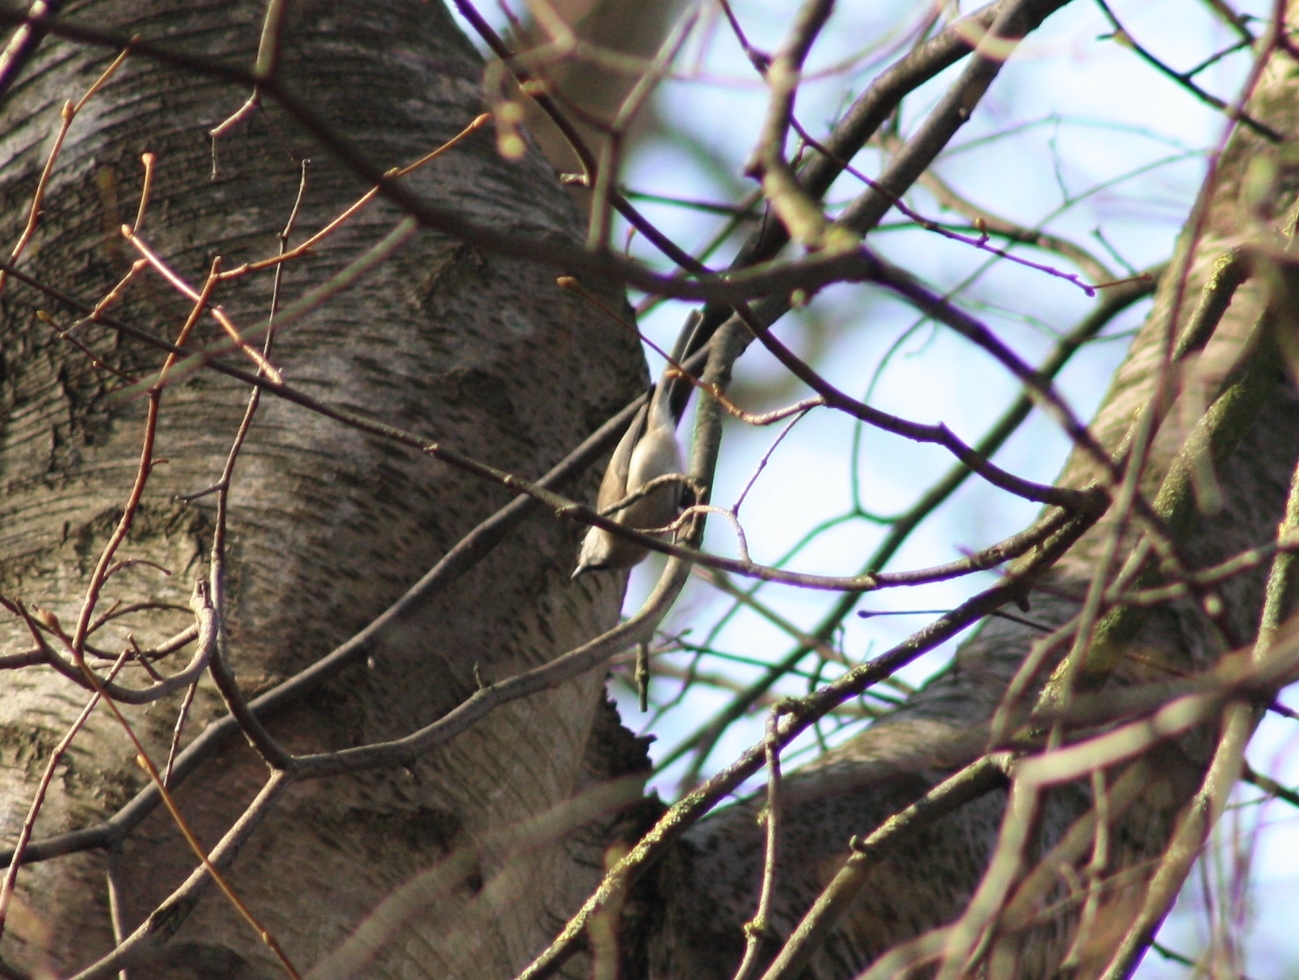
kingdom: Animalia
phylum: Chordata
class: Aves
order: Passeriformes
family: Paridae
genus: Poecile
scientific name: Poecile palustris
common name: Marsh tit
